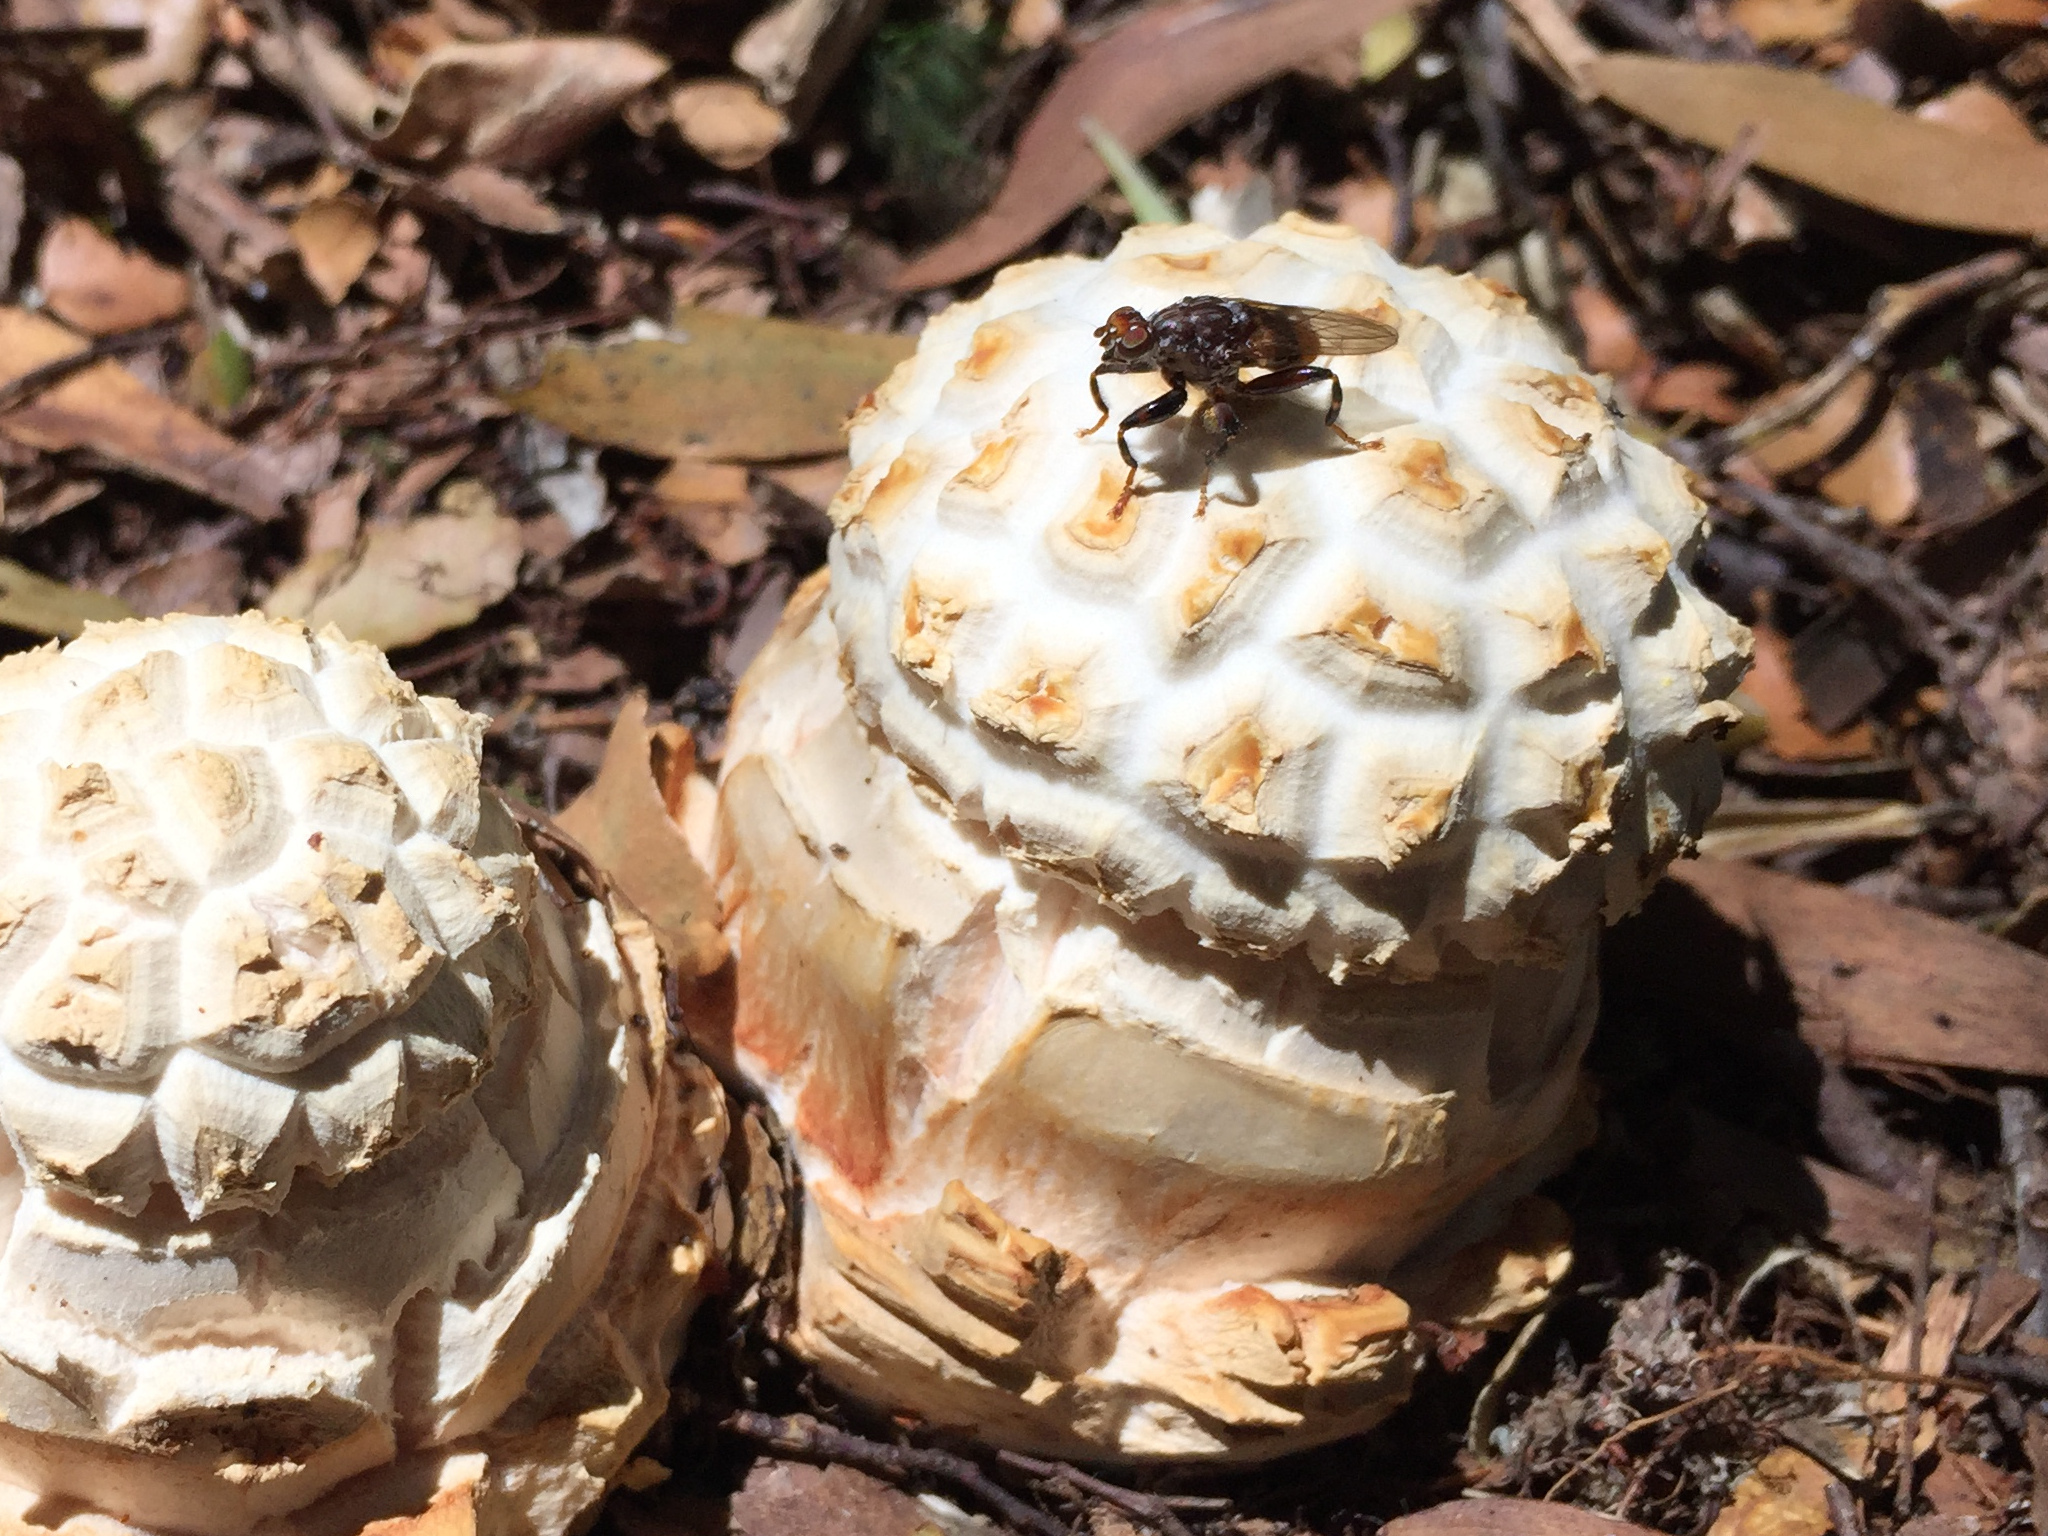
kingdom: Animalia
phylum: Arthropoda
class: Insecta
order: Diptera
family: Heleomyzidae
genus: Tapeigaster
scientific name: Tapeigaster brunneifrons
